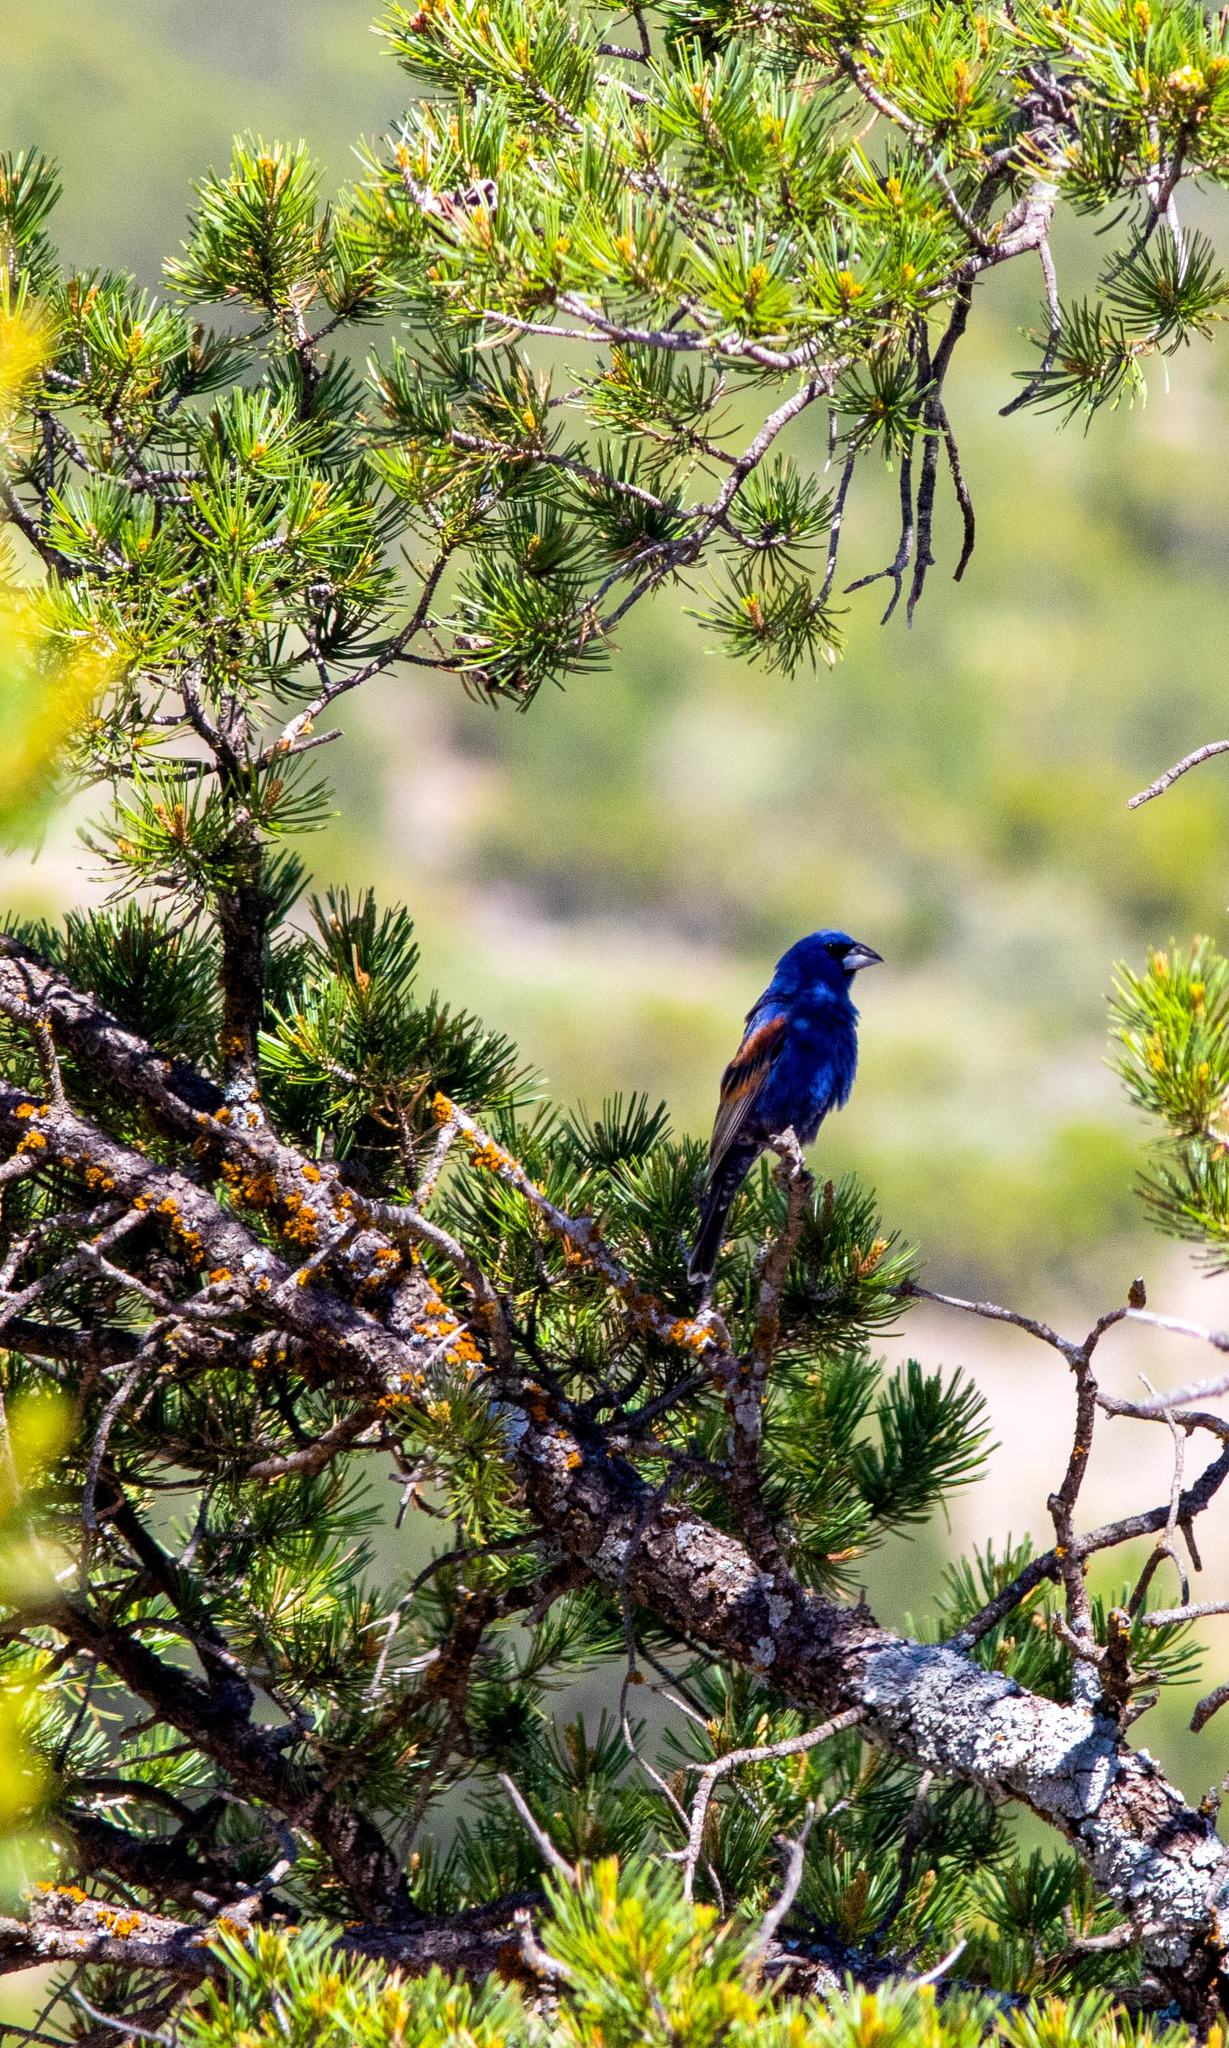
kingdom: Animalia
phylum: Chordata
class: Aves
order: Passeriformes
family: Cardinalidae
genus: Passerina
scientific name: Passerina caerulea
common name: Blue grosbeak
